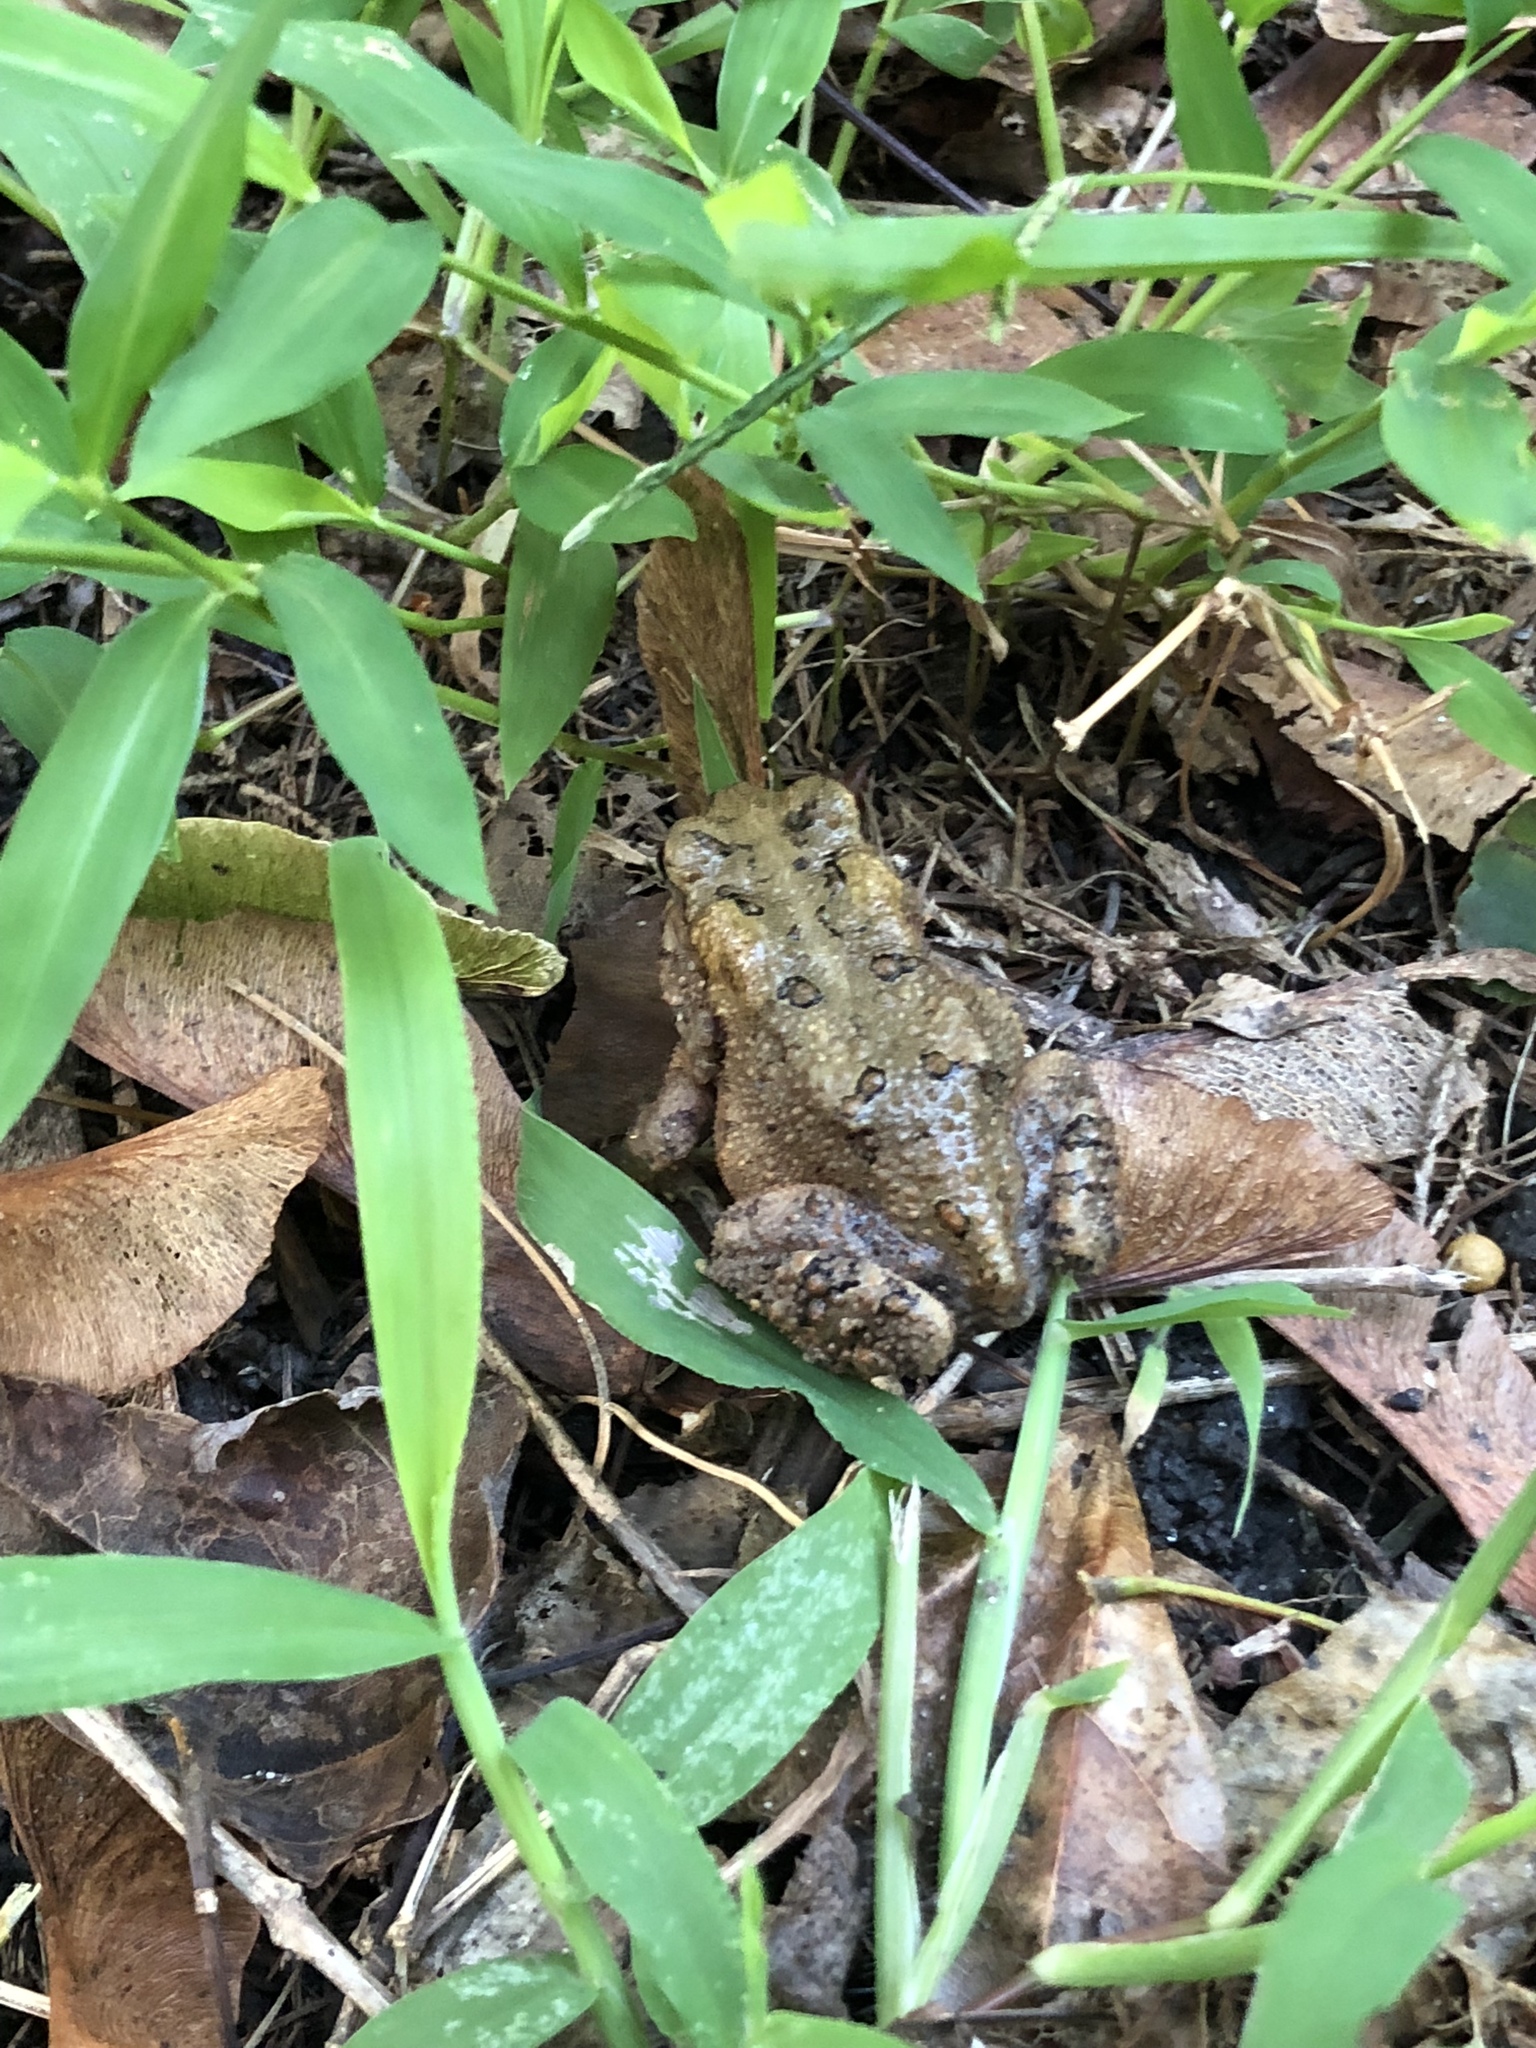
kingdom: Animalia
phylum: Chordata
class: Amphibia
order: Anura
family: Bufonidae
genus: Anaxyrus
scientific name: Anaxyrus americanus
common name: American toad
